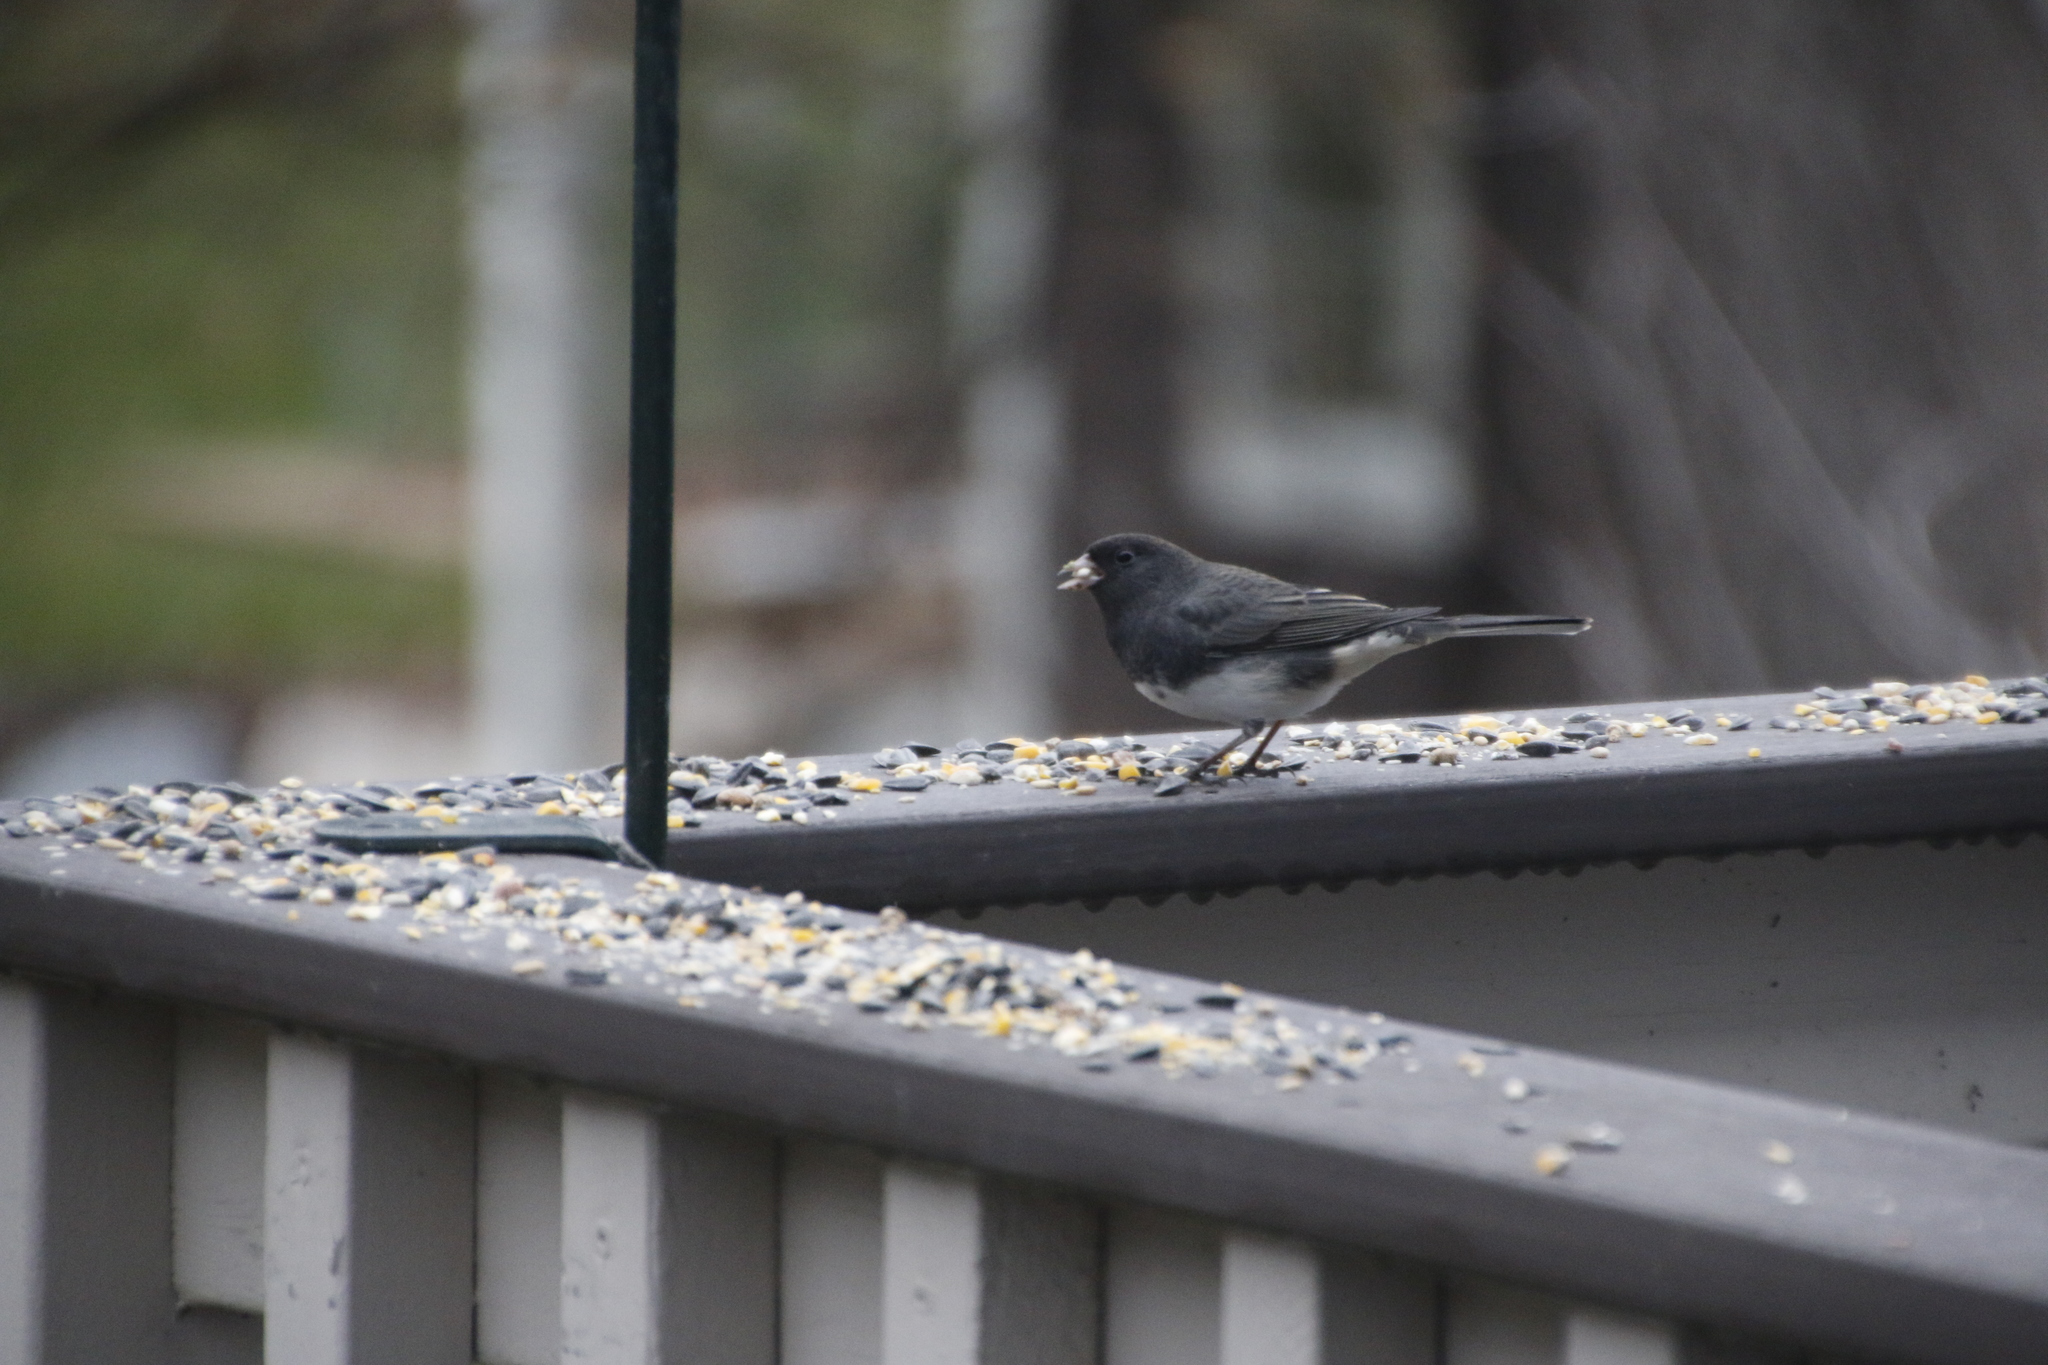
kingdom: Animalia
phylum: Chordata
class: Aves
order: Passeriformes
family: Passerellidae
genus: Junco
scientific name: Junco hyemalis
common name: Dark-eyed junco
